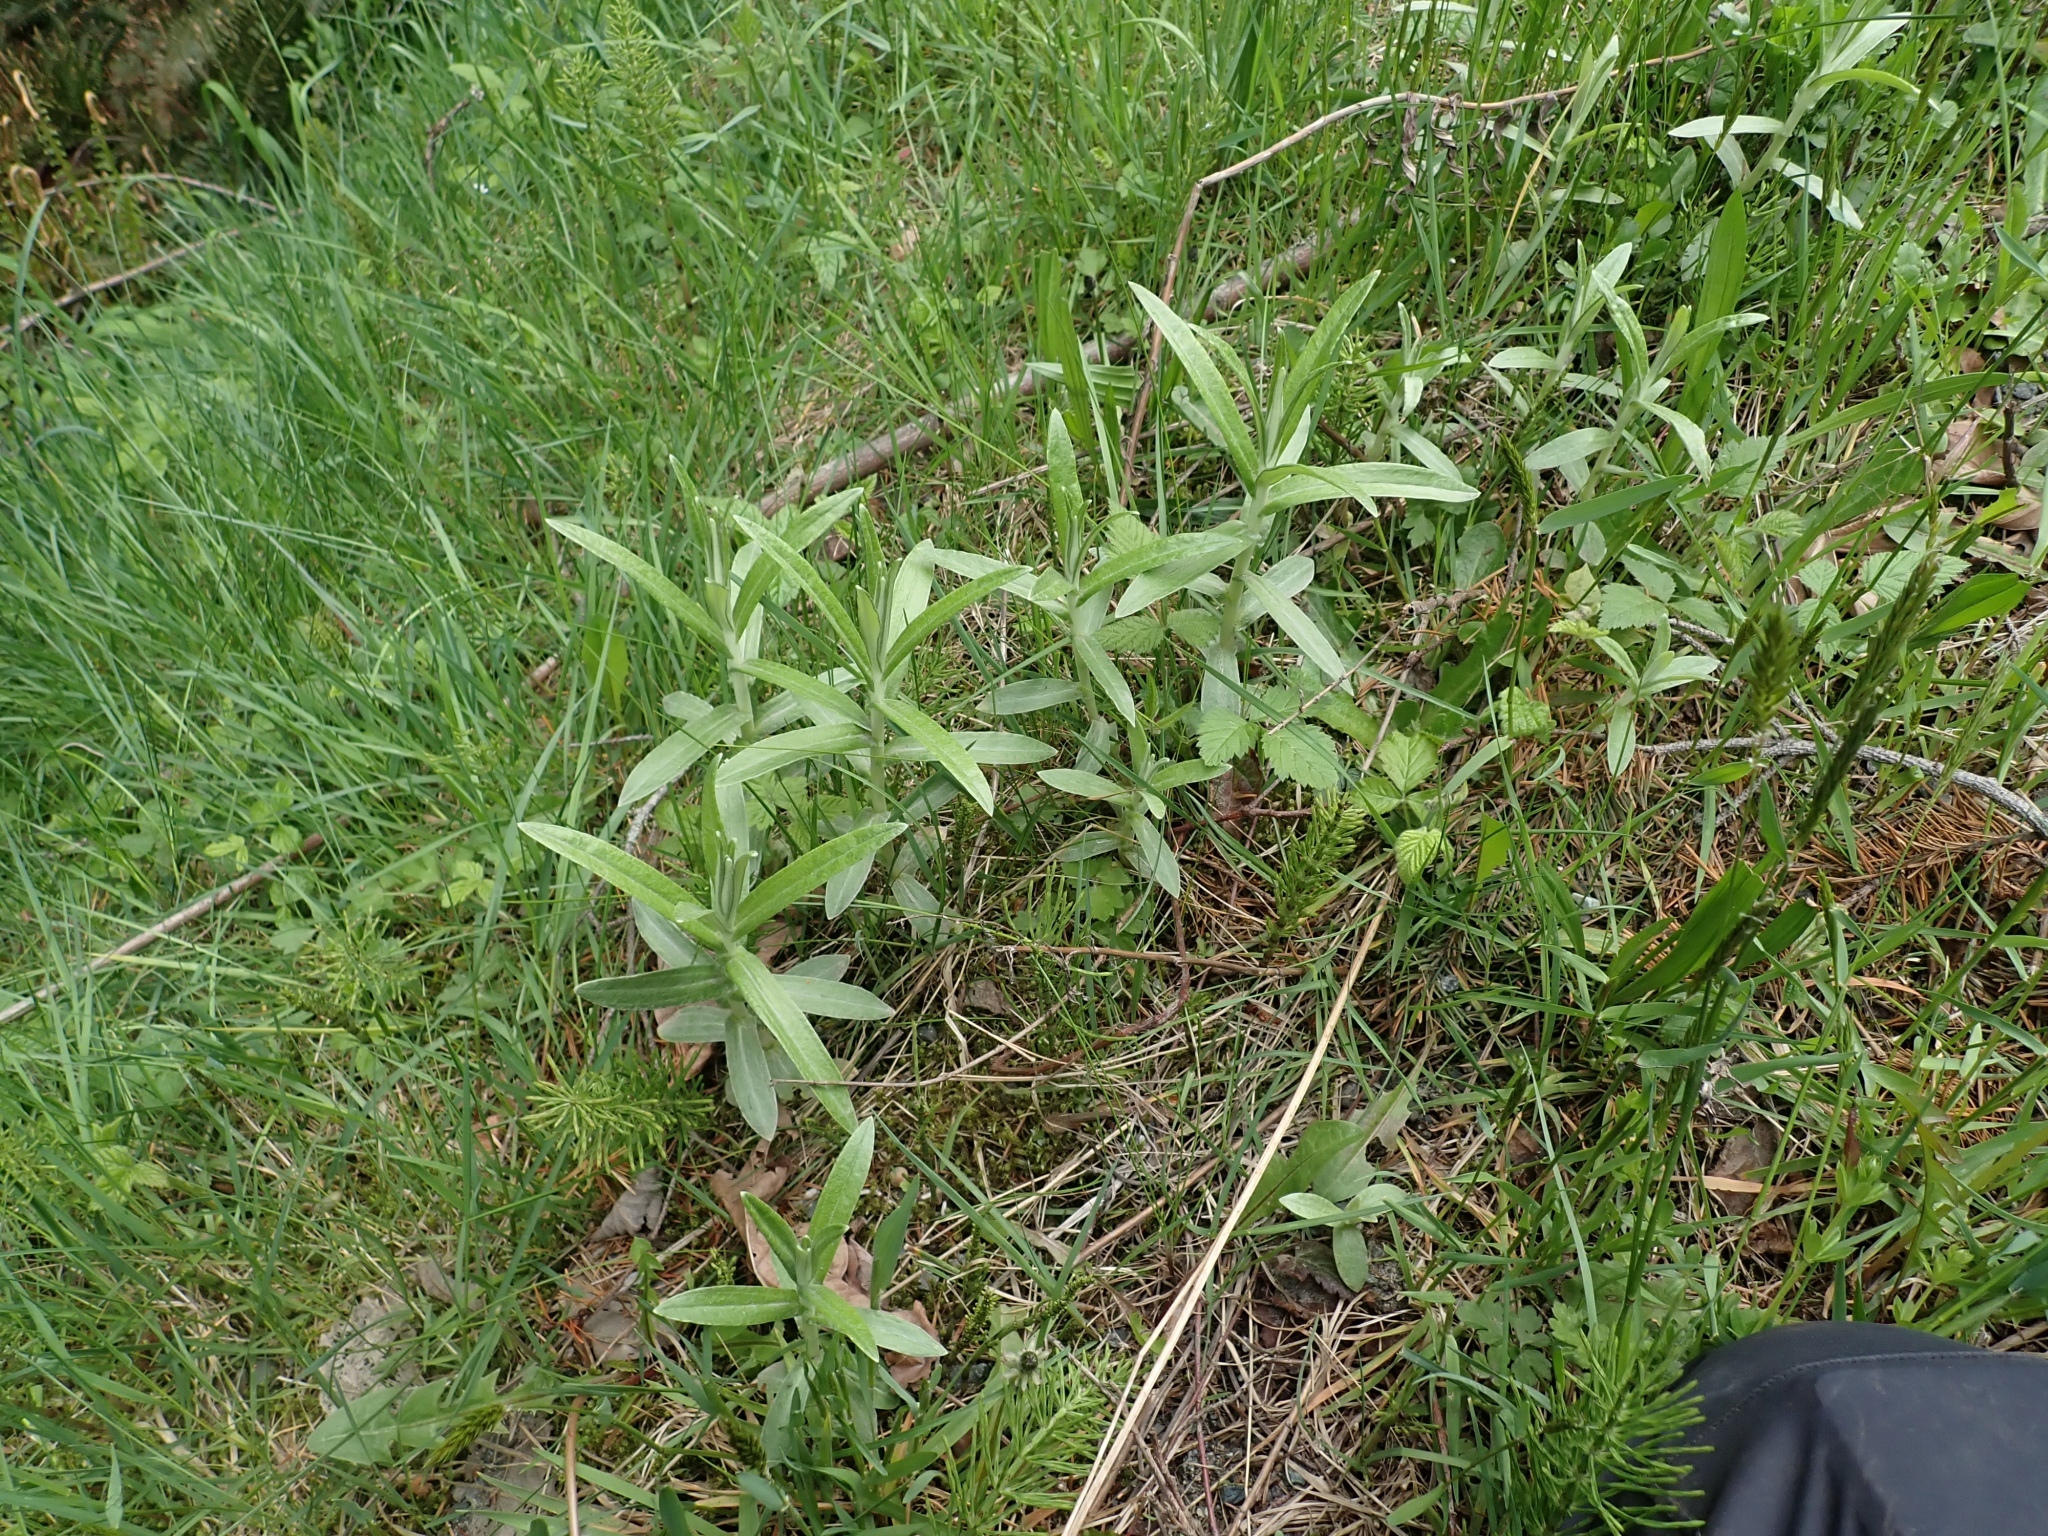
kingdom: Plantae
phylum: Tracheophyta
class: Magnoliopsida
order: Asterales
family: Asteraceae
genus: Anaphalis
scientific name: Anaphalis margaritacea
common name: Pearly everlasting
